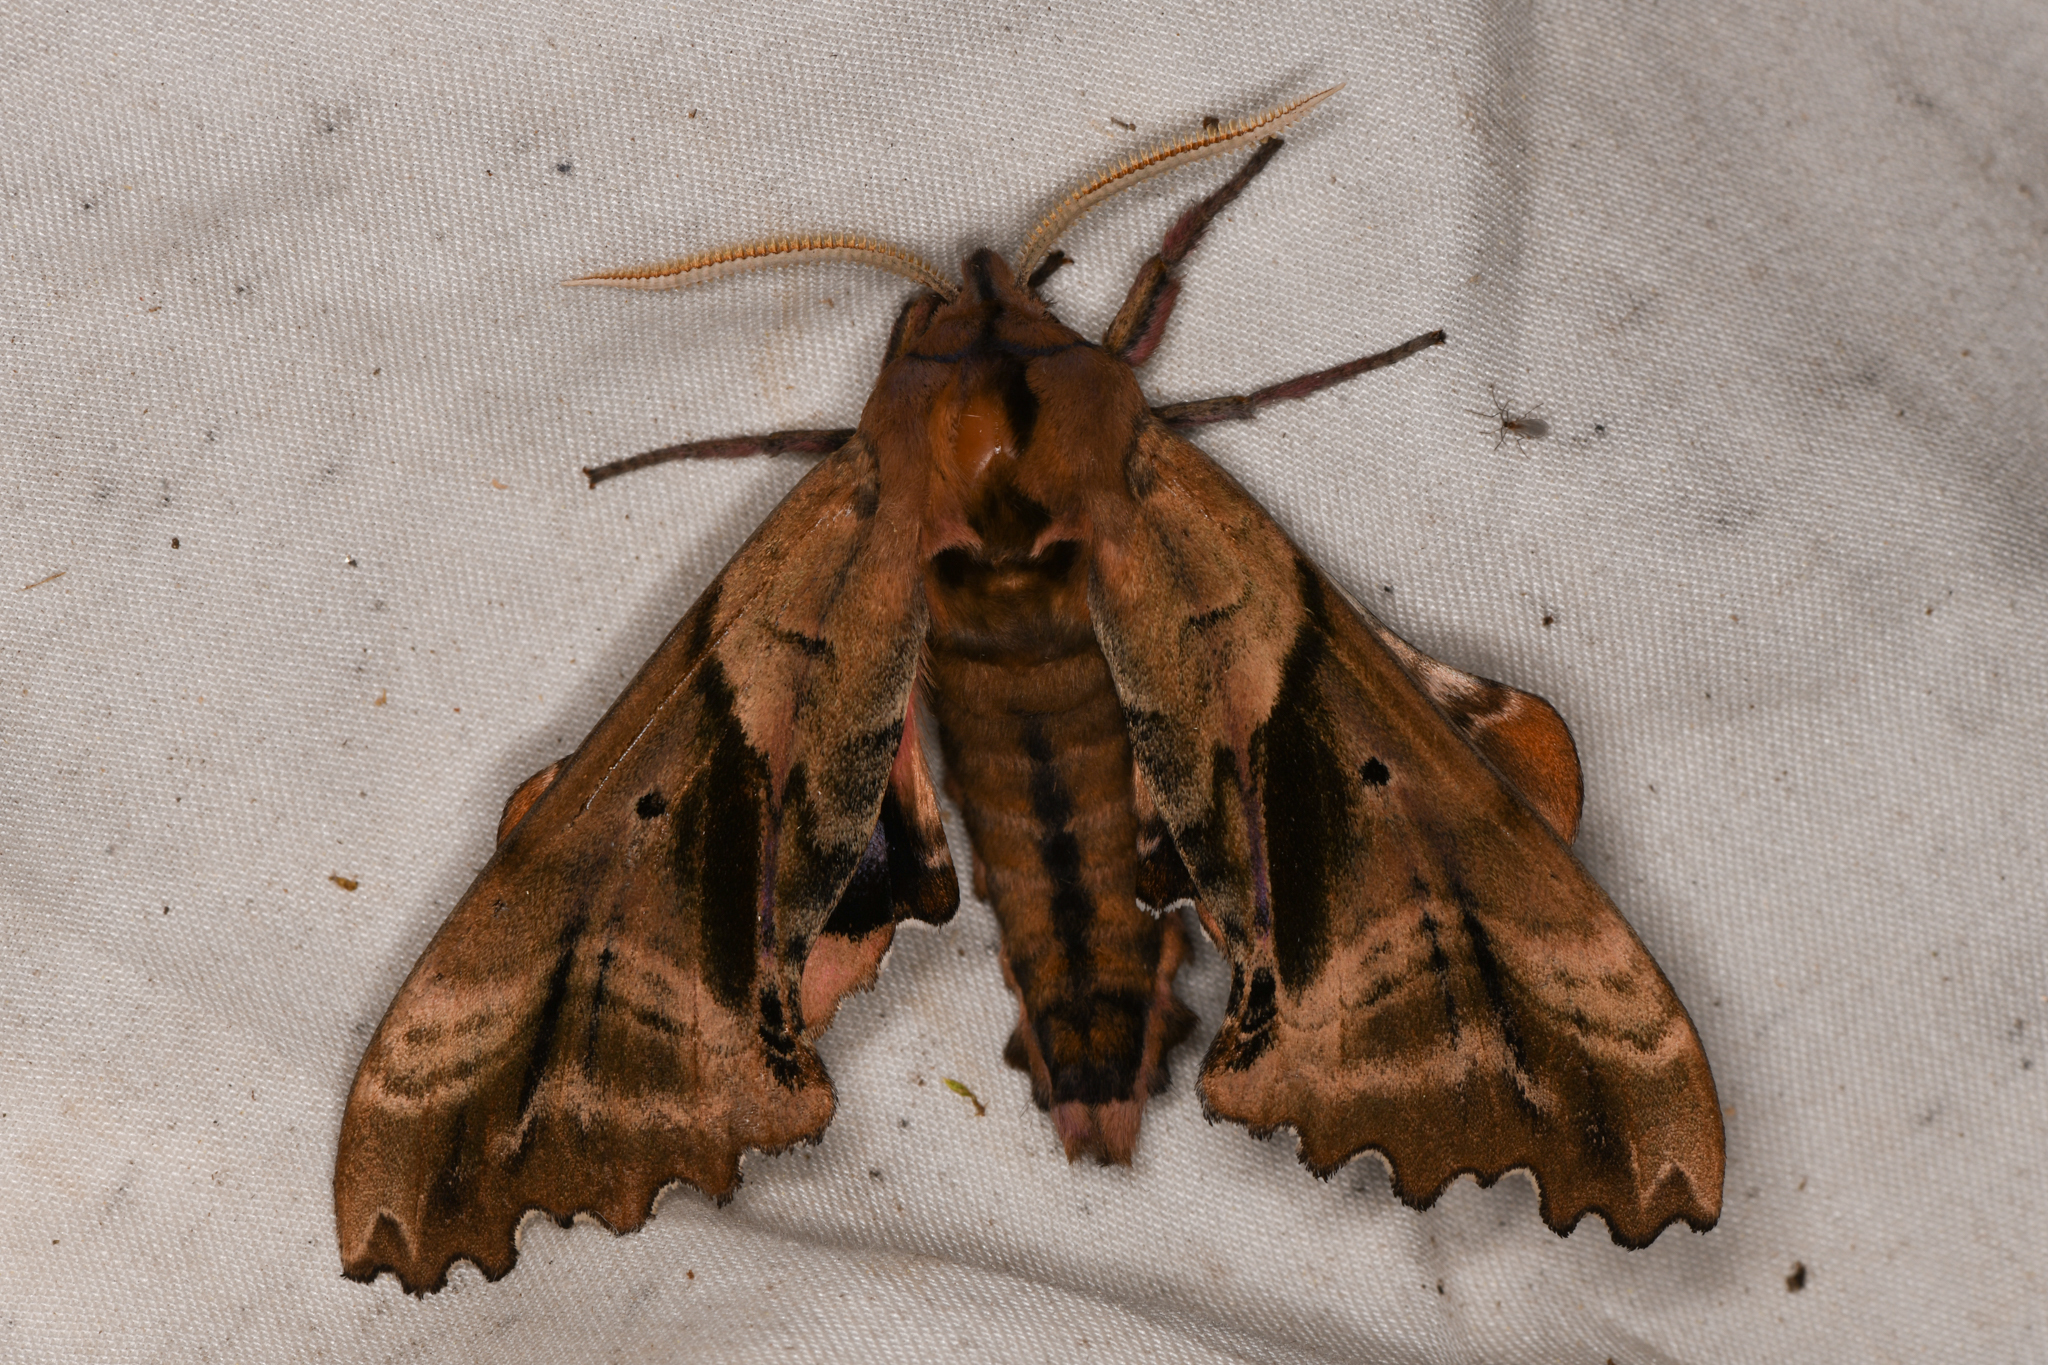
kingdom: Animalia
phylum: Arthropoda
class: Insecta
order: Lepidoptera
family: Sphingidae
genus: Paonias
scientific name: Paonias excaecata
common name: Blind-eyed sphinx
